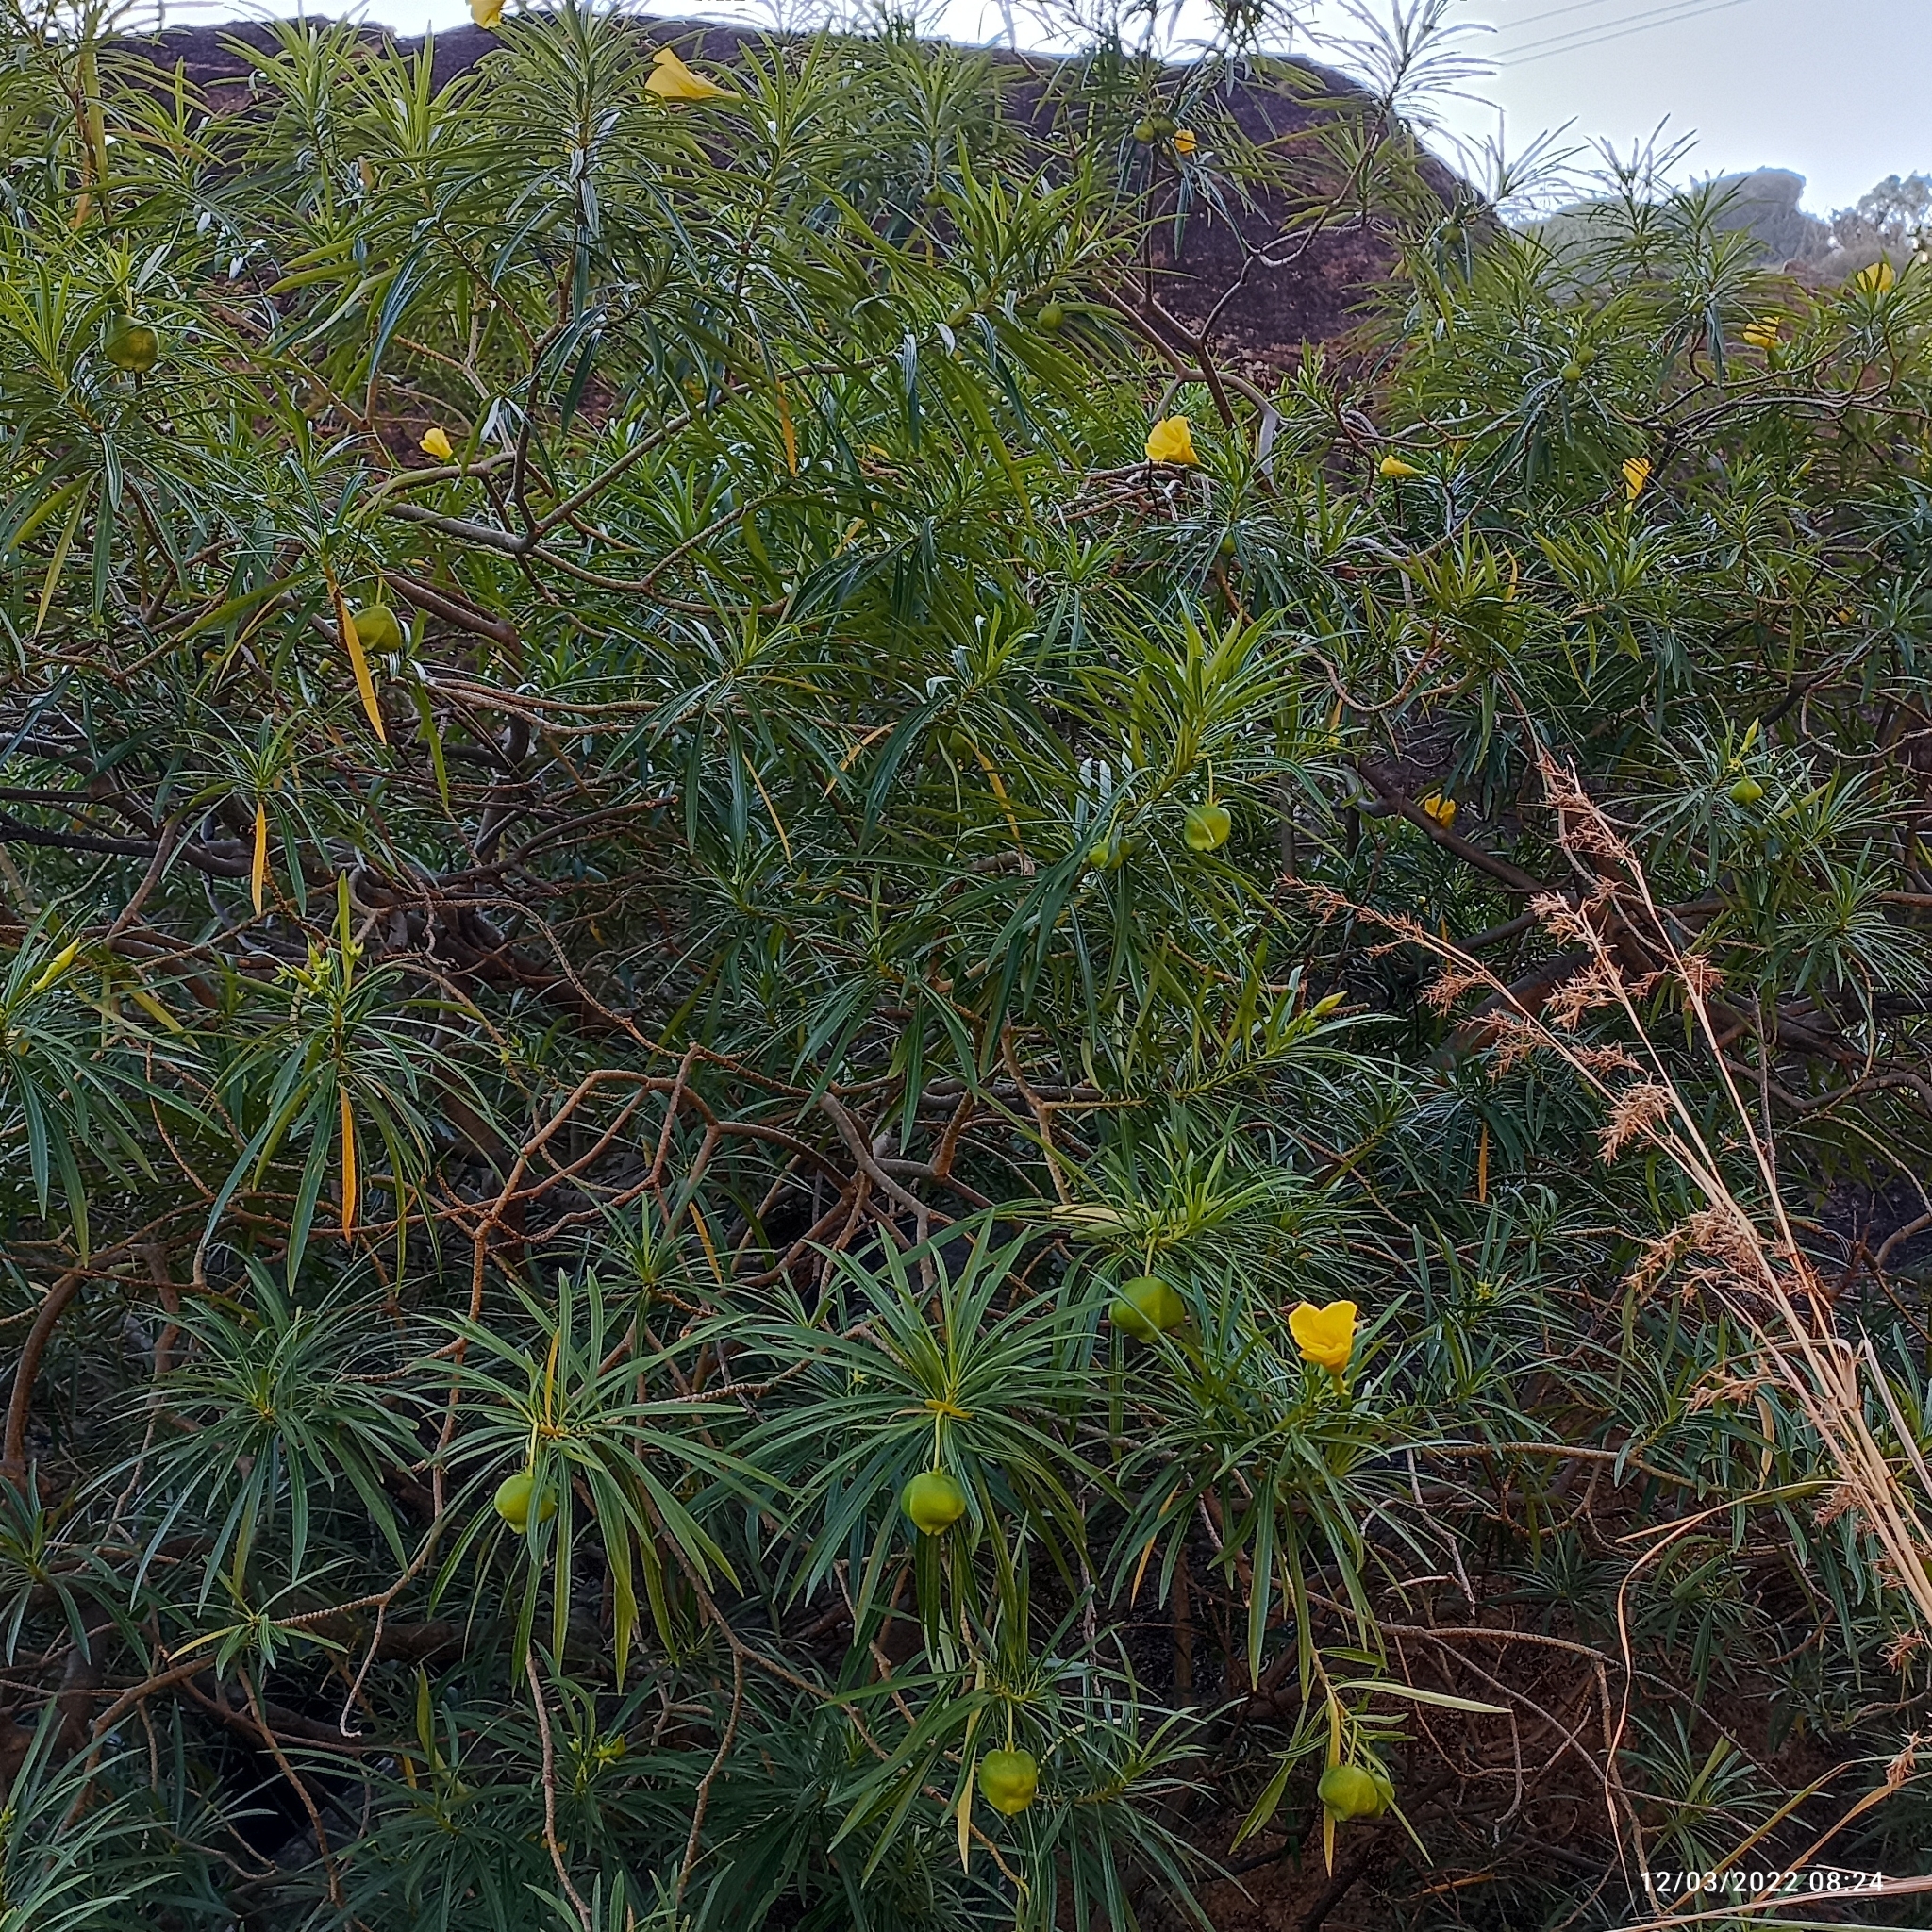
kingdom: Plantae
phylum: Tracheophyta
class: Magnoliopsida
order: Gentianales
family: Apocynaceae
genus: Cascabela
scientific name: Cascabela thevetia
